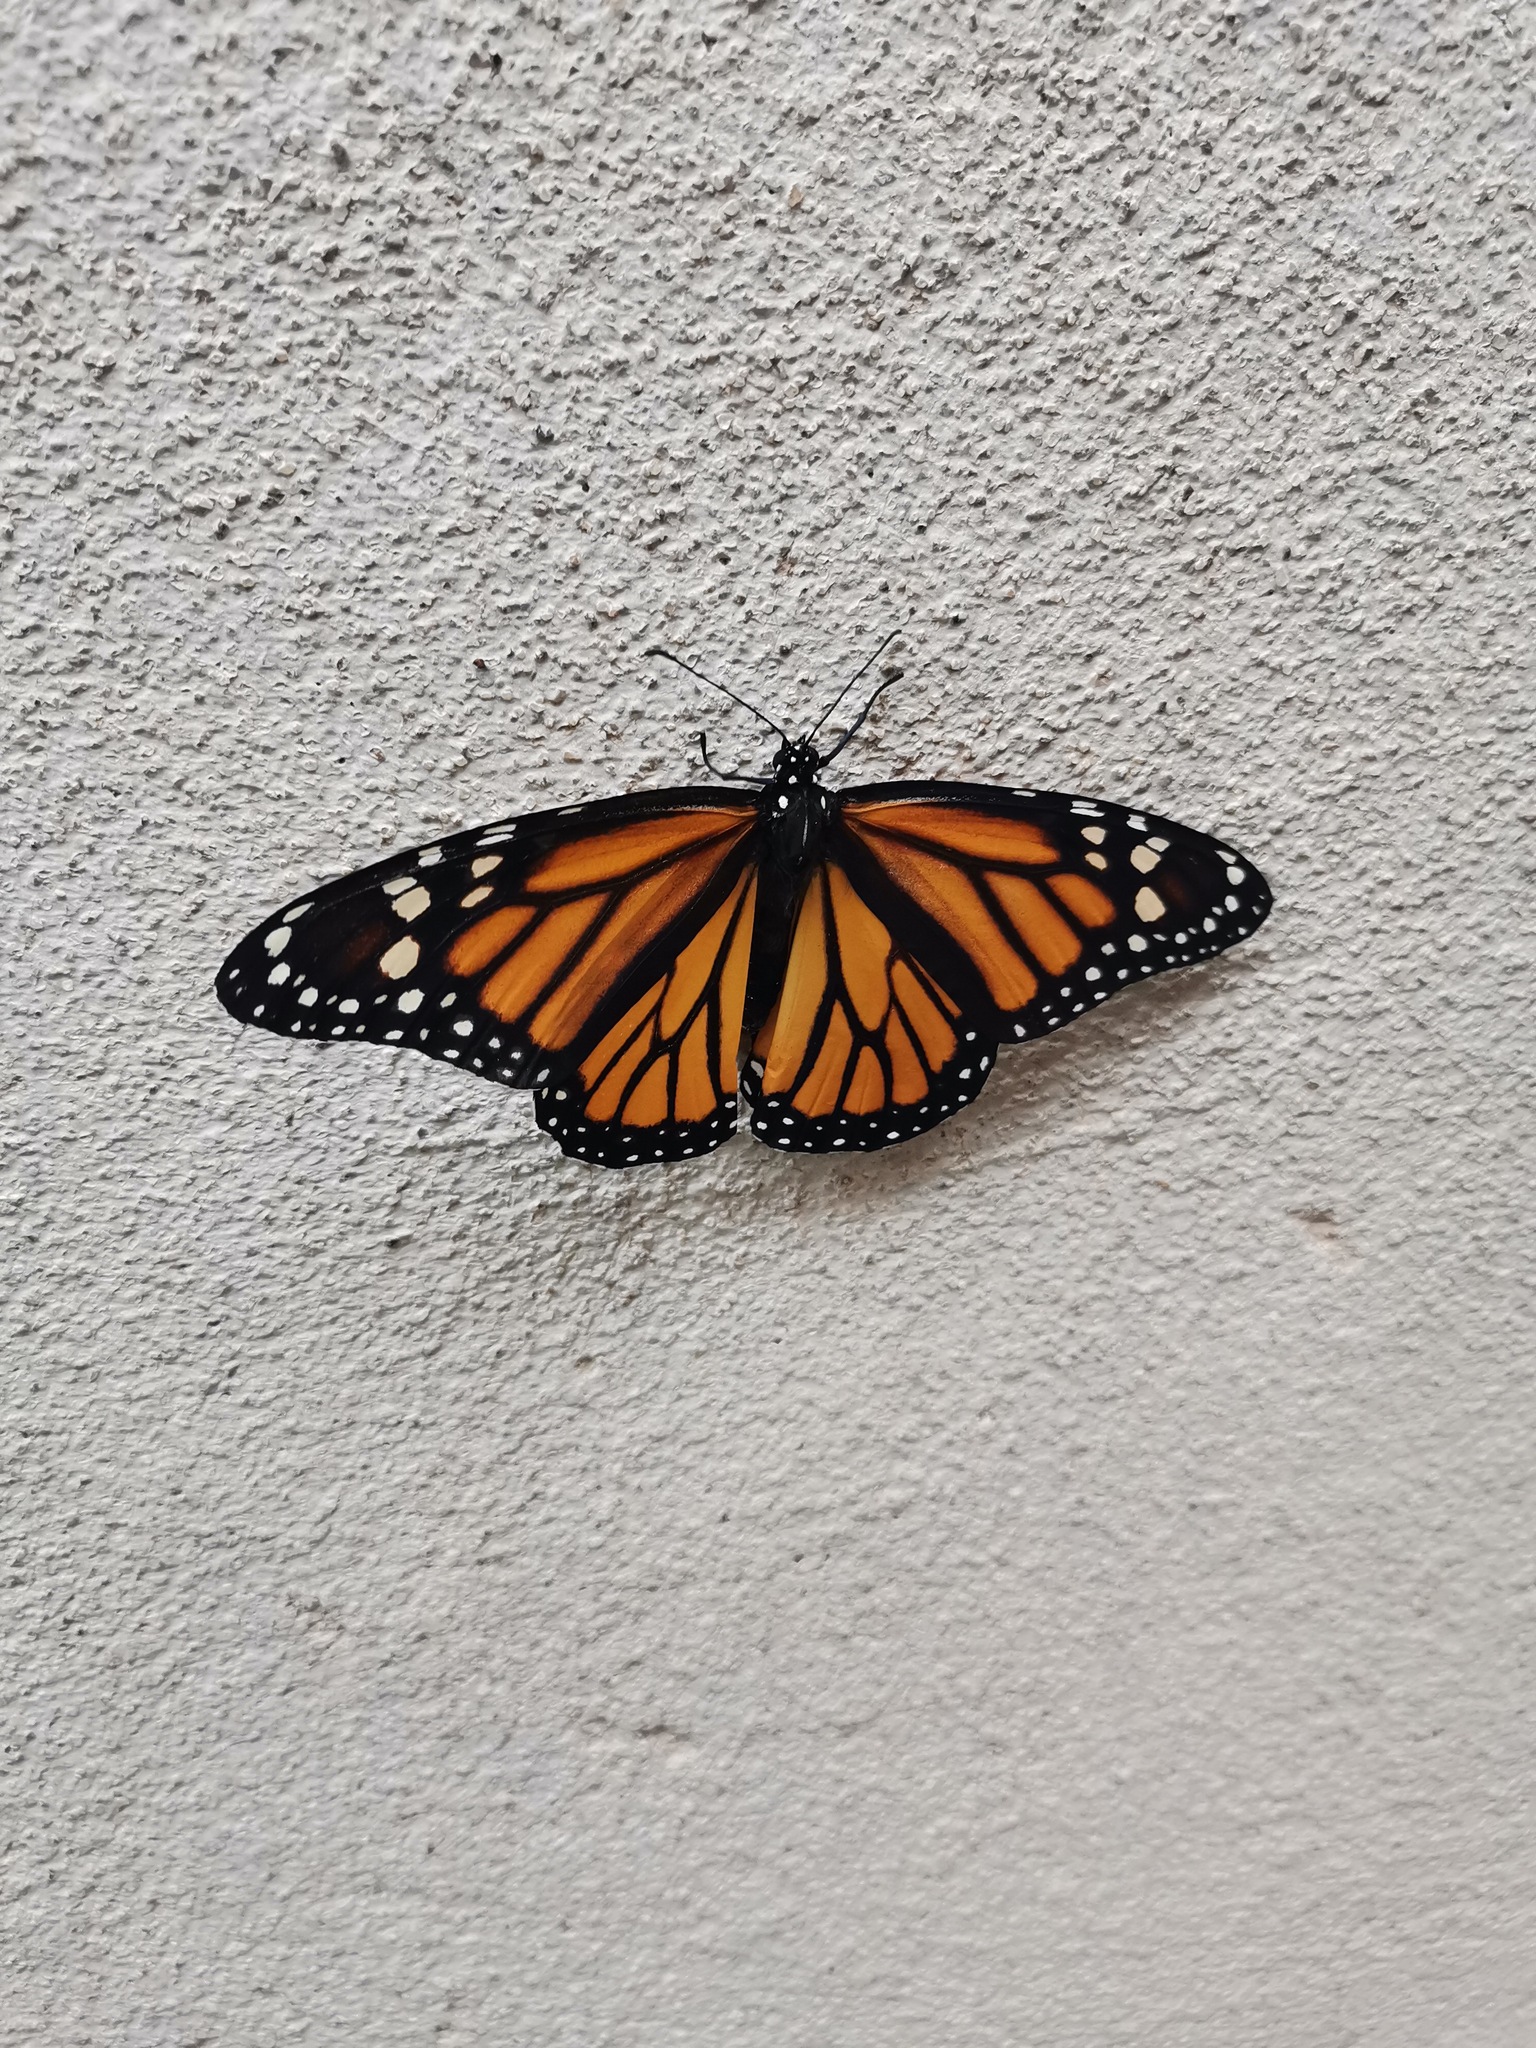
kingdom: Animalia
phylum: Arthropoda
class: Insecta
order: Lepidoptera
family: Nymphalidae
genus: Danaus
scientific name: Danaus plexippus
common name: Monarch
